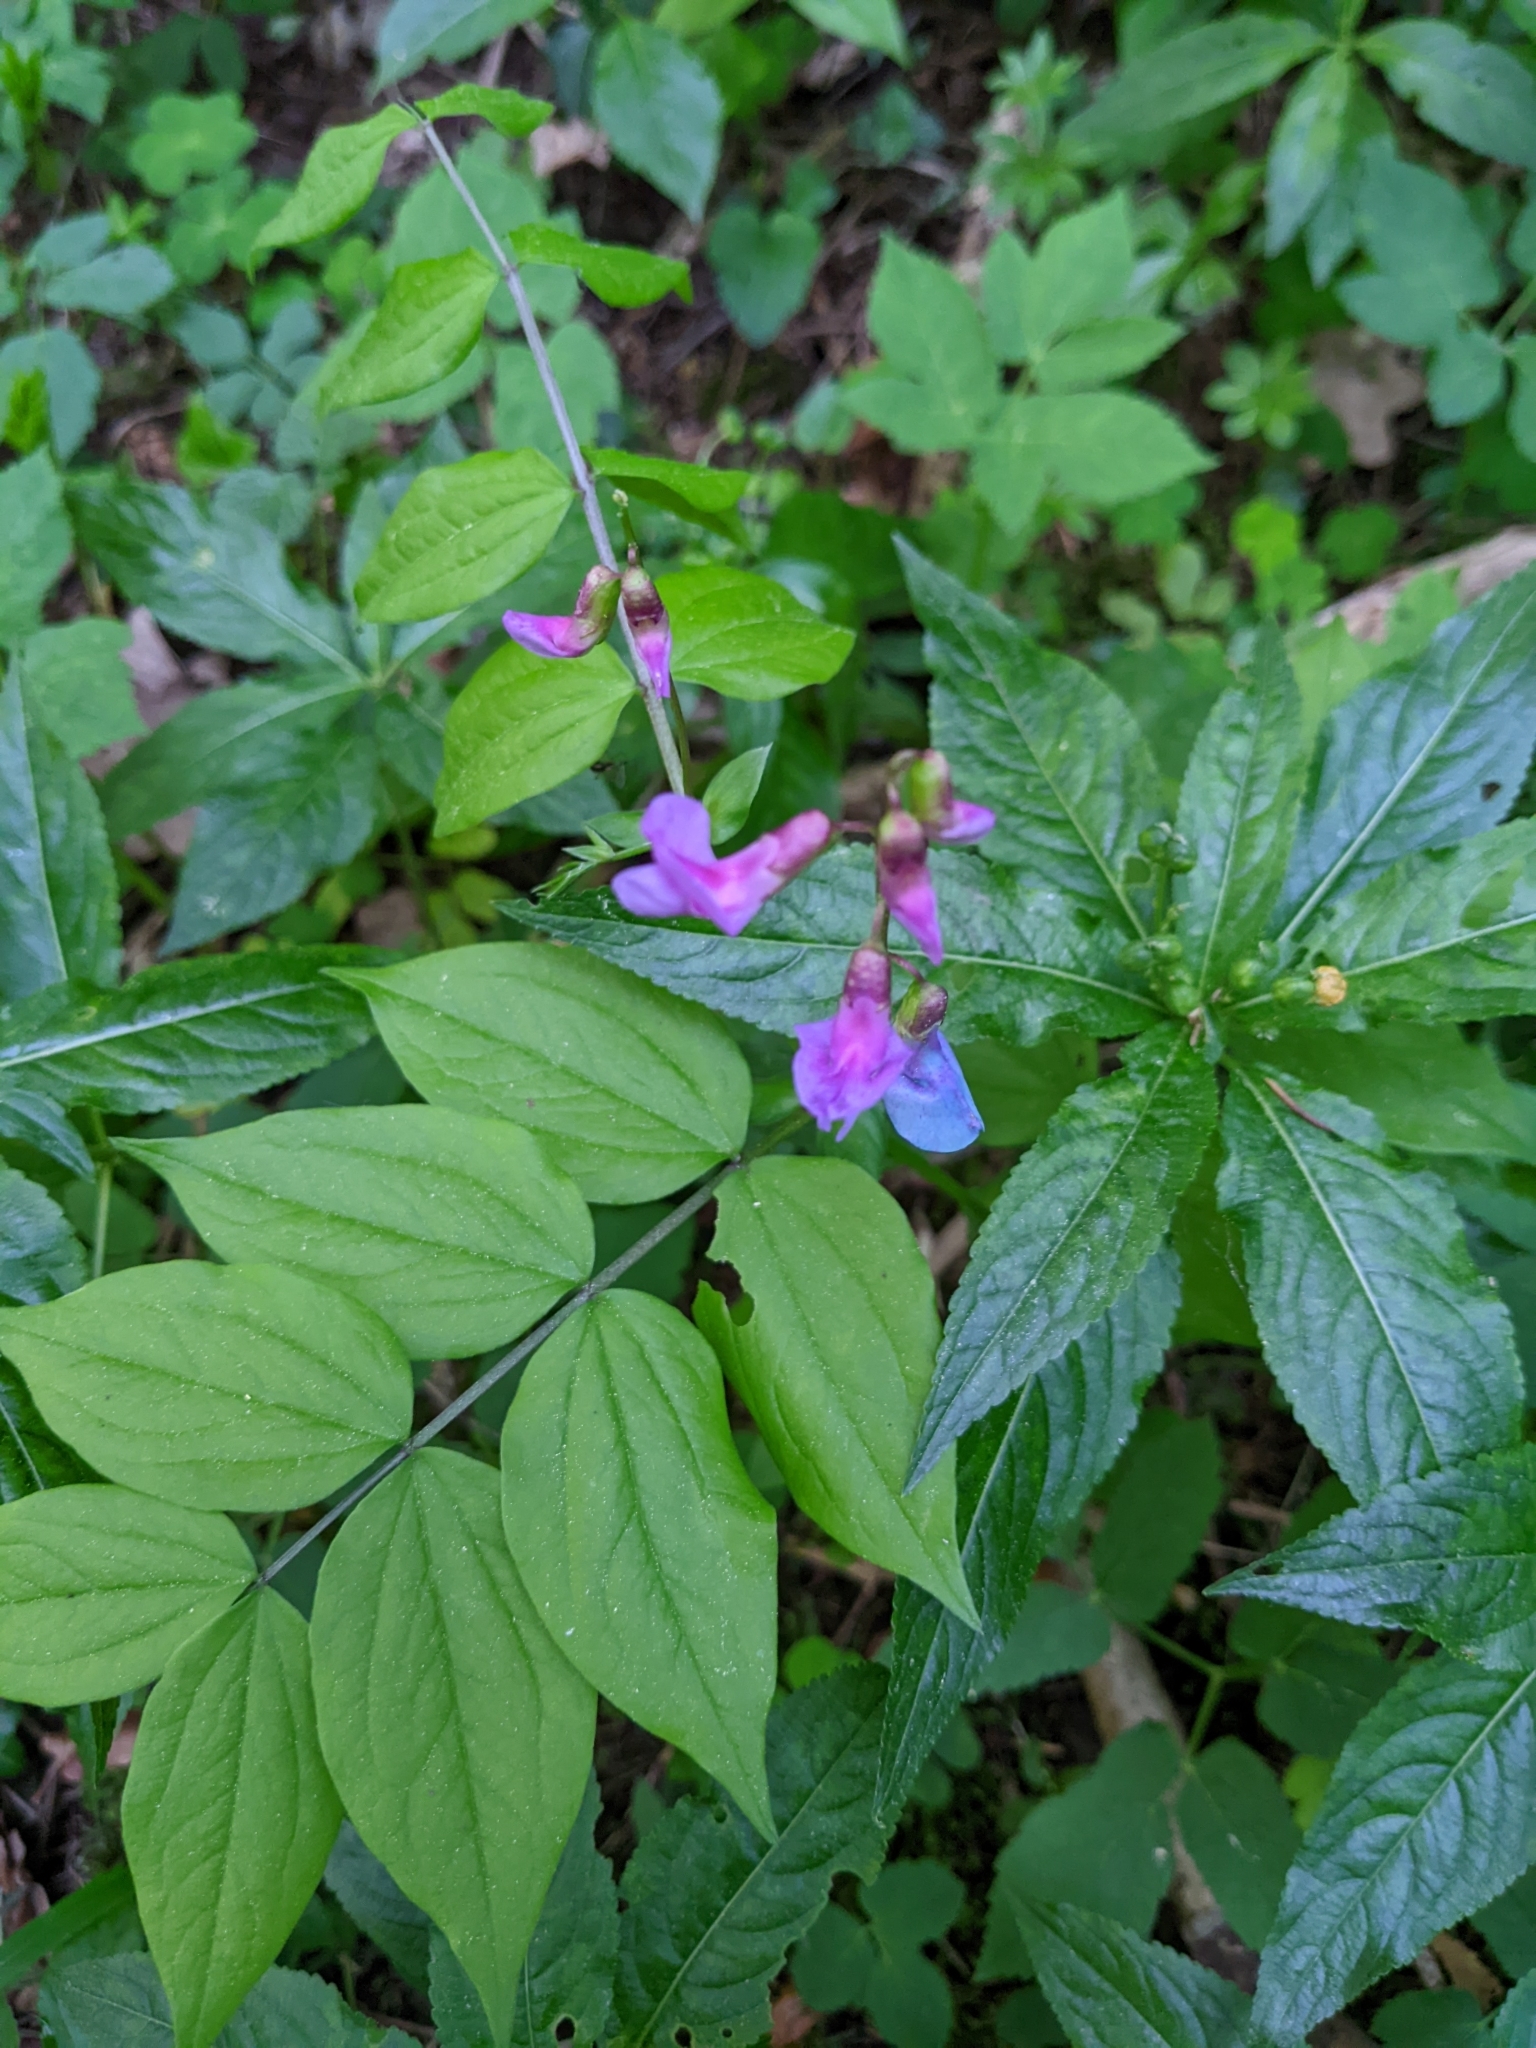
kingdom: Plantae
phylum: Tracheophyta
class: Magnoliopsida
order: Fabales
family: Fabaceae
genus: Lathyrus
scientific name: Lathyrus vernus
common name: Spring pea
